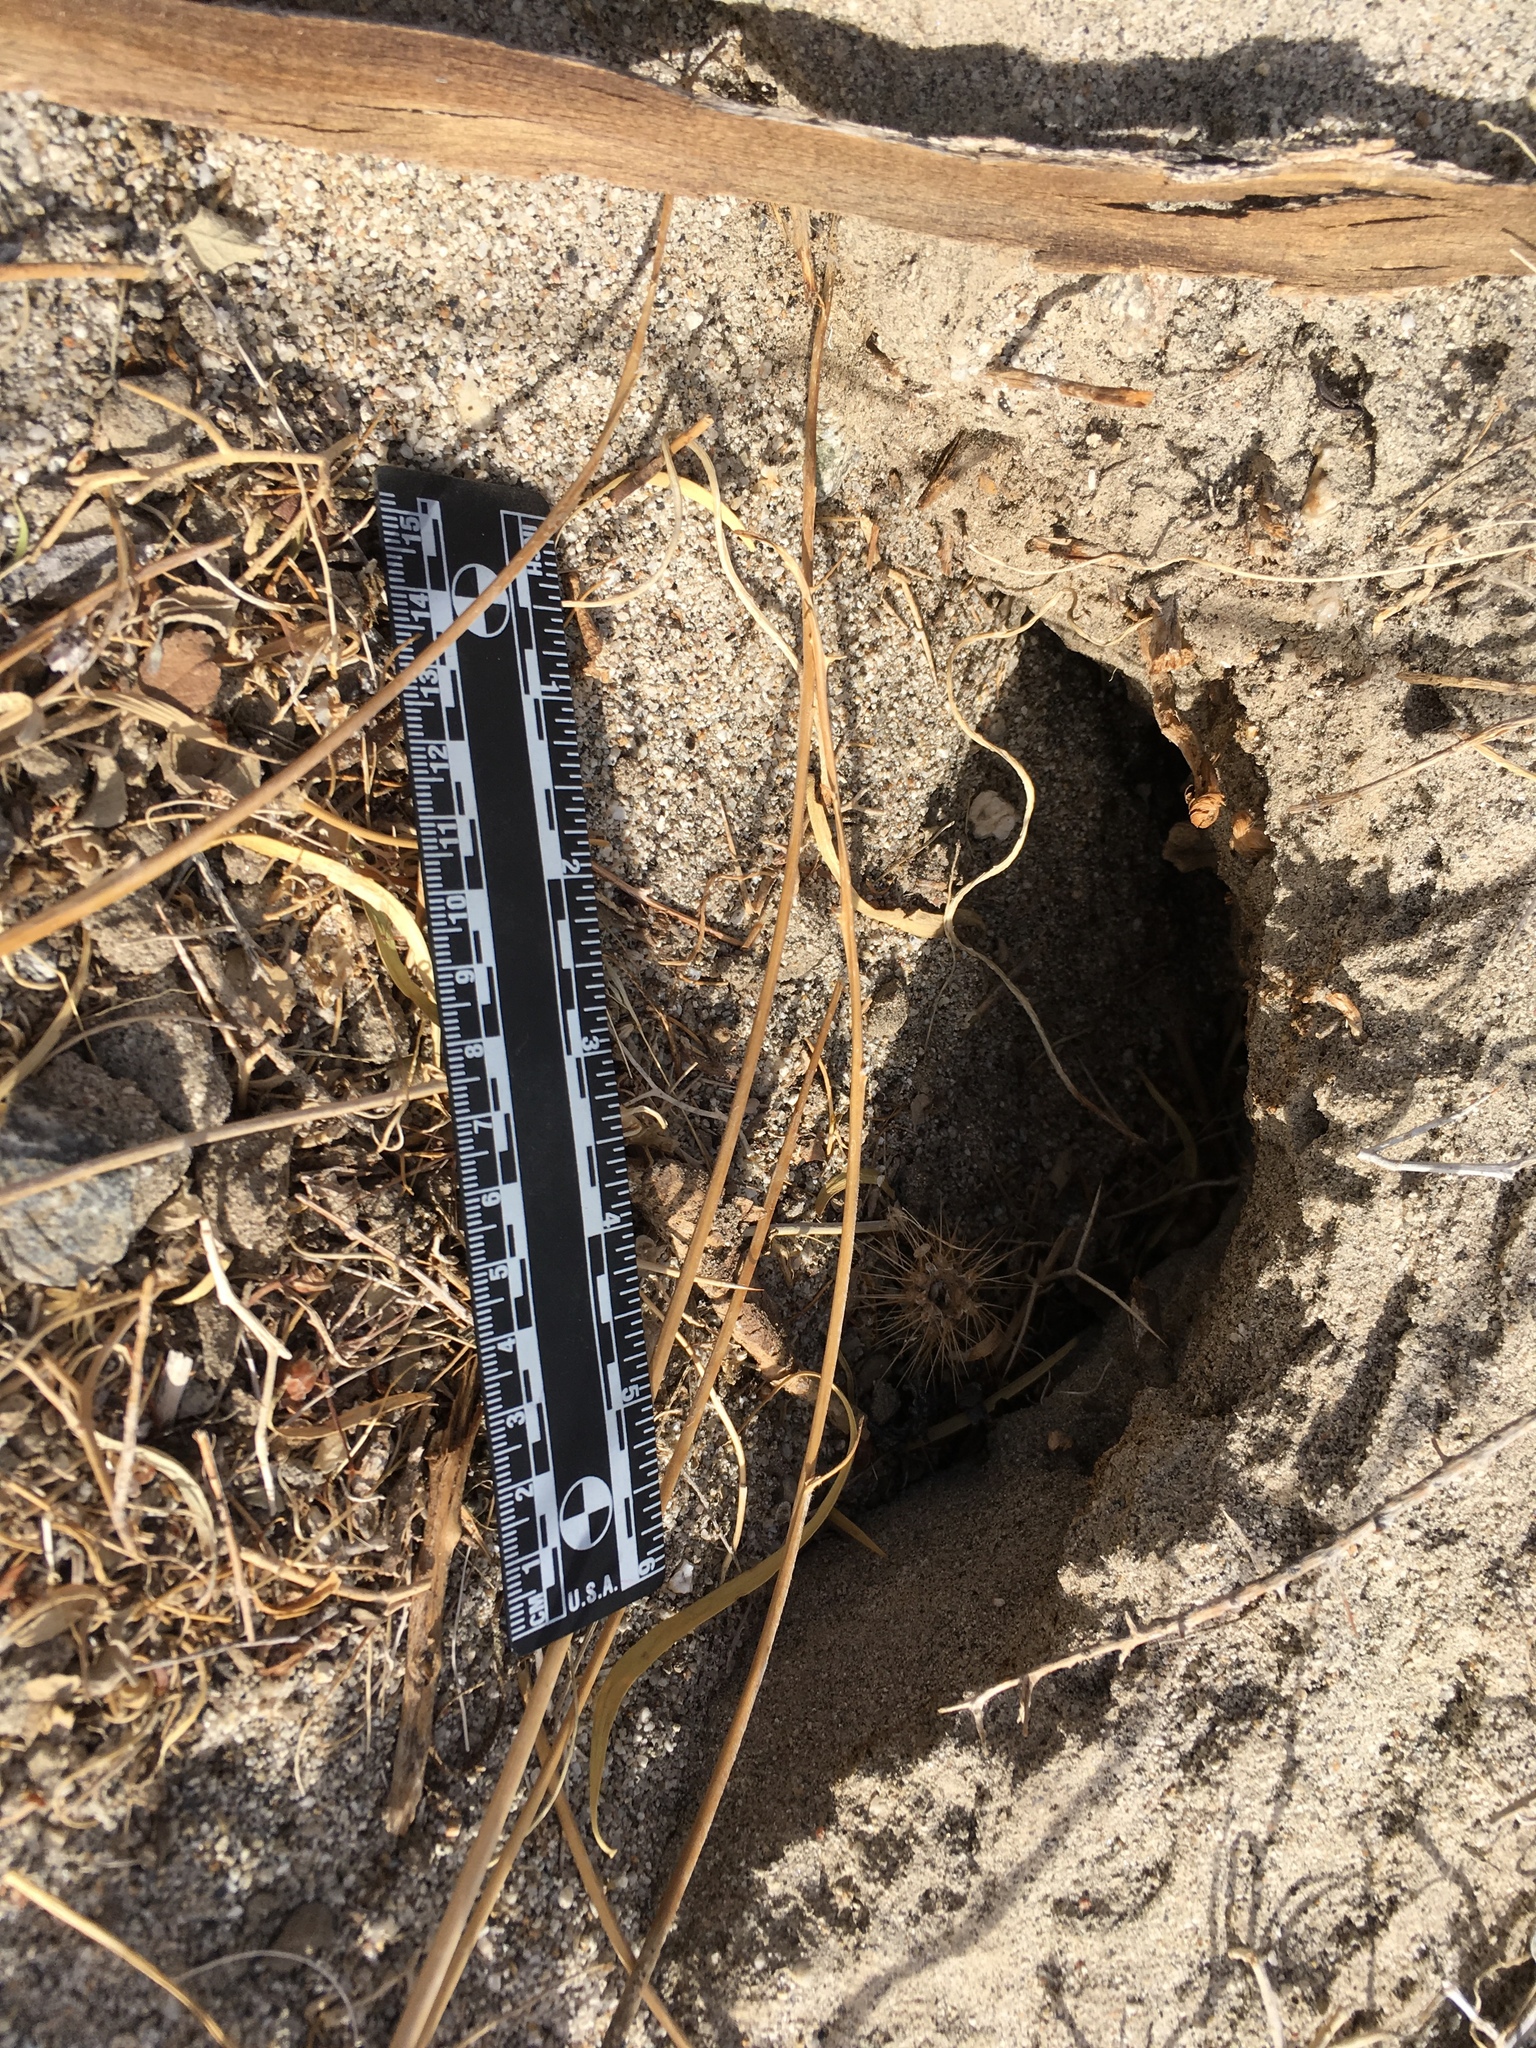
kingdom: Animalia
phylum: Chordata
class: Mammalia
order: Carnivora
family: Mustelidae
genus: Taxidea
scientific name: Taxidea taxus
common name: American badger
